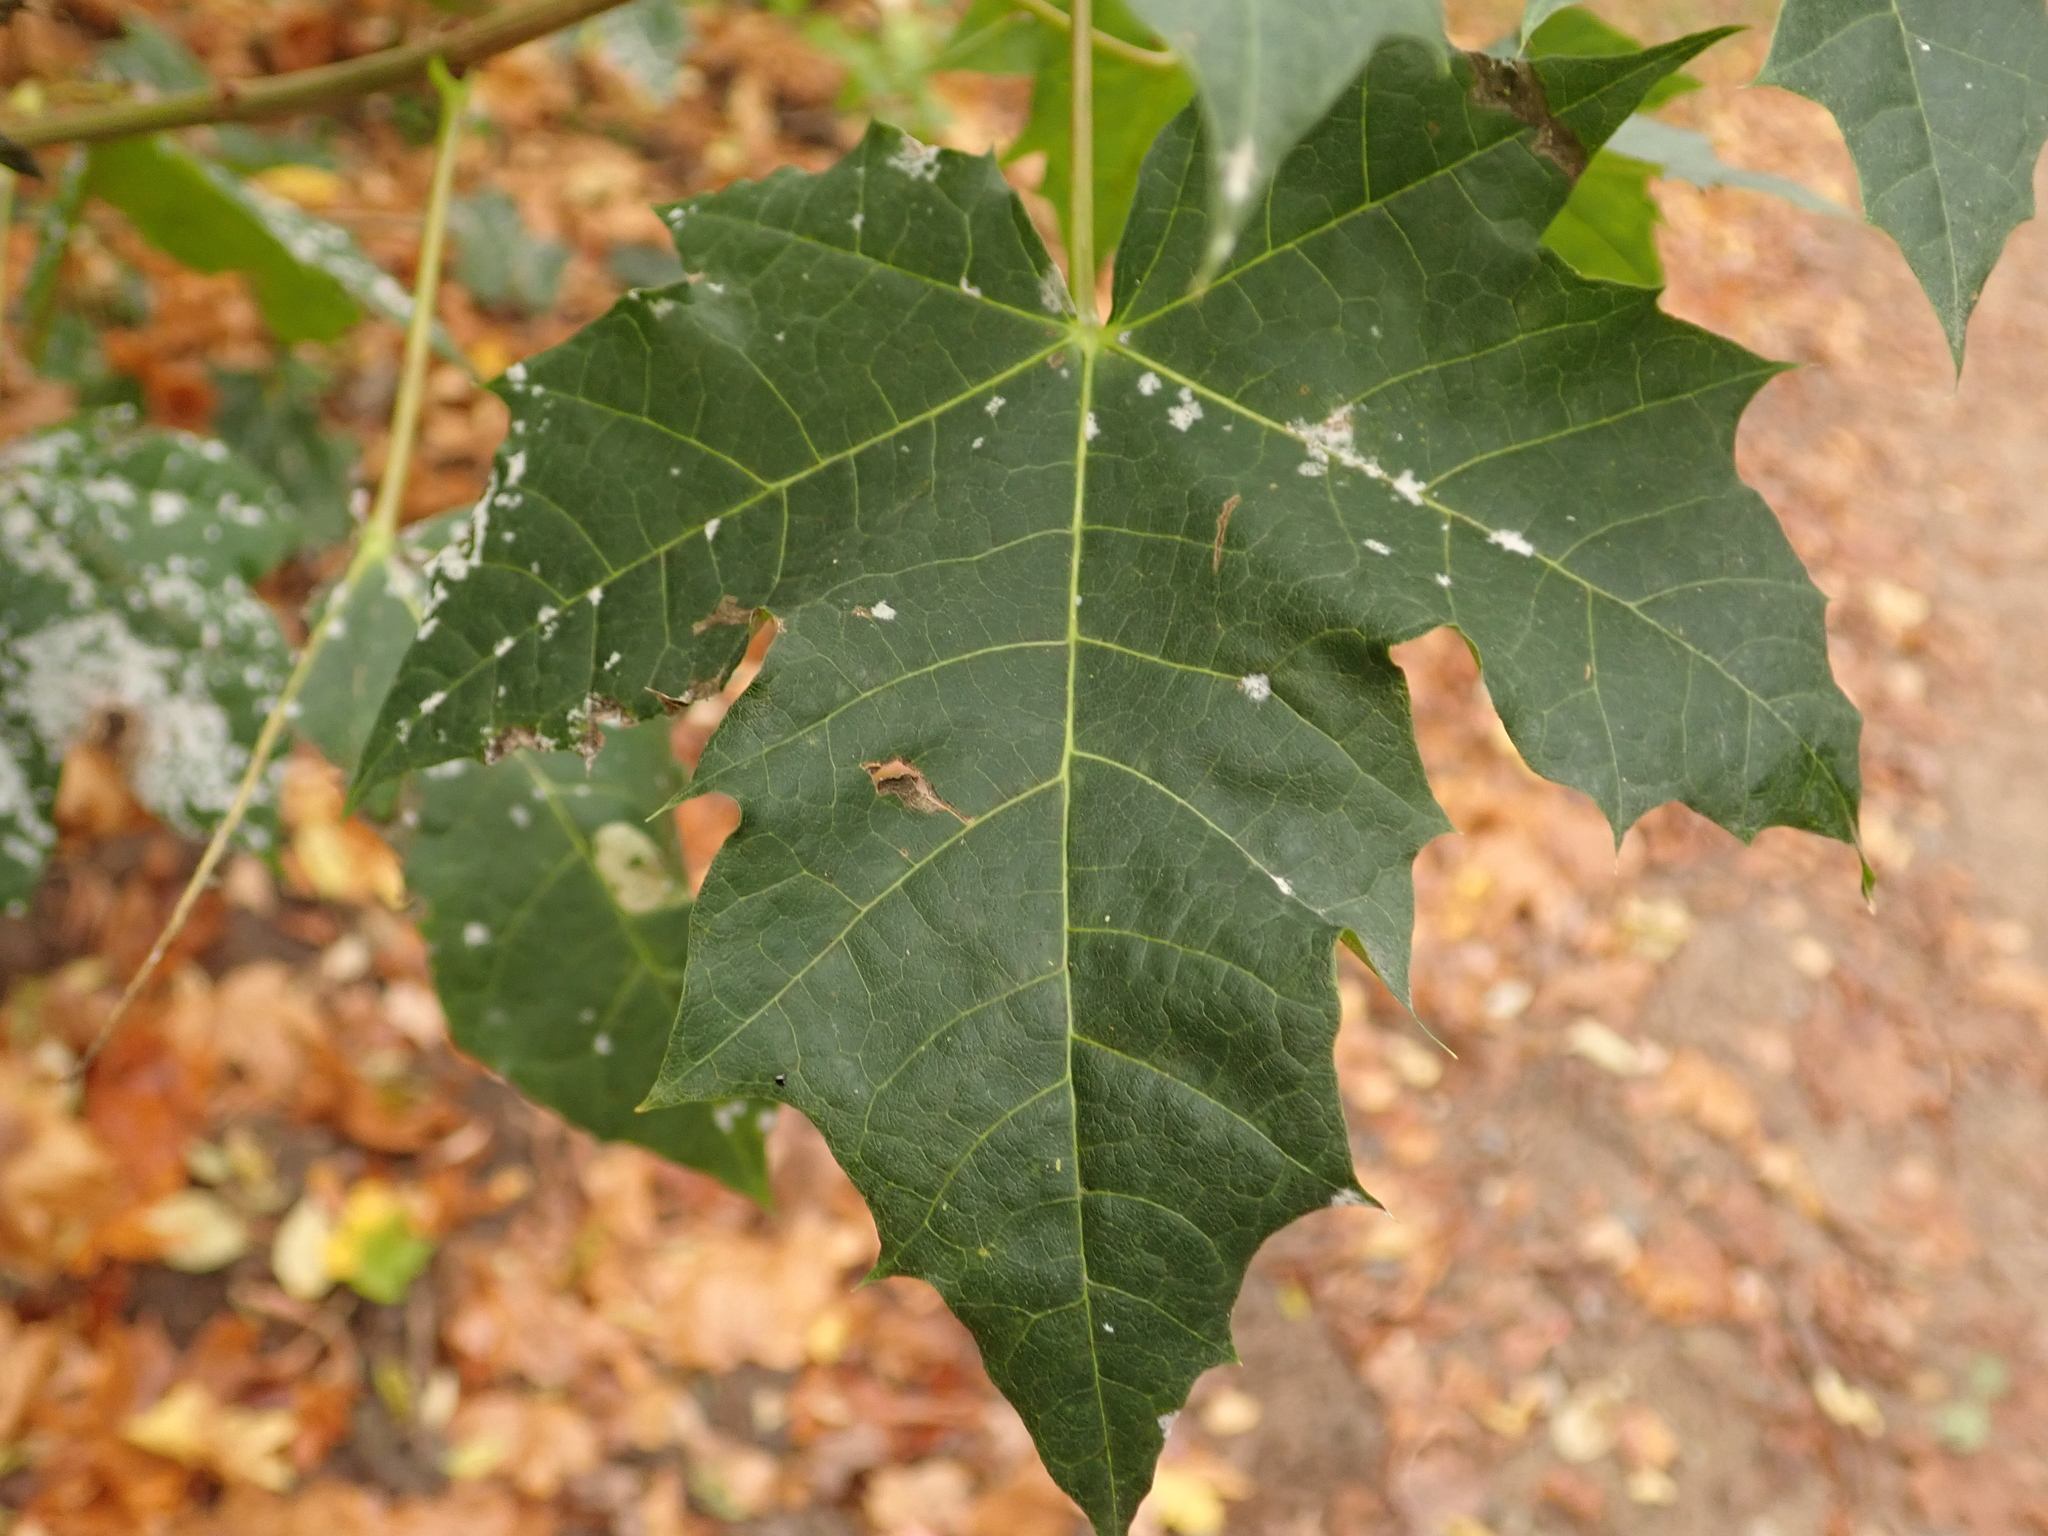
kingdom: Plantae
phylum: Tracheophyta
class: Magnoliopsida
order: Sapindales
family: Sapindaceae
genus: Acer
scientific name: Acer platanoides
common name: Norway maple
